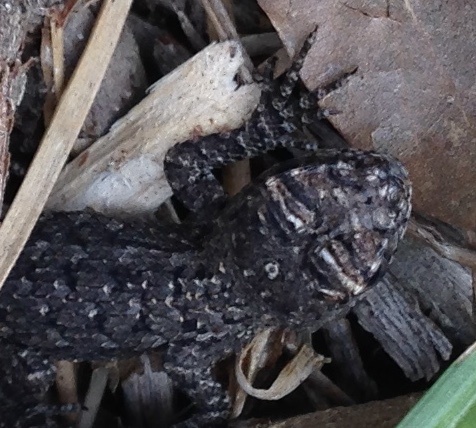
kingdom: Animalia
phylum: Chordata
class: Squamata
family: Phrynosomatidae
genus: Sceloporus
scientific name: Sceloporus olivaceus
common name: Texas spiny lizard
